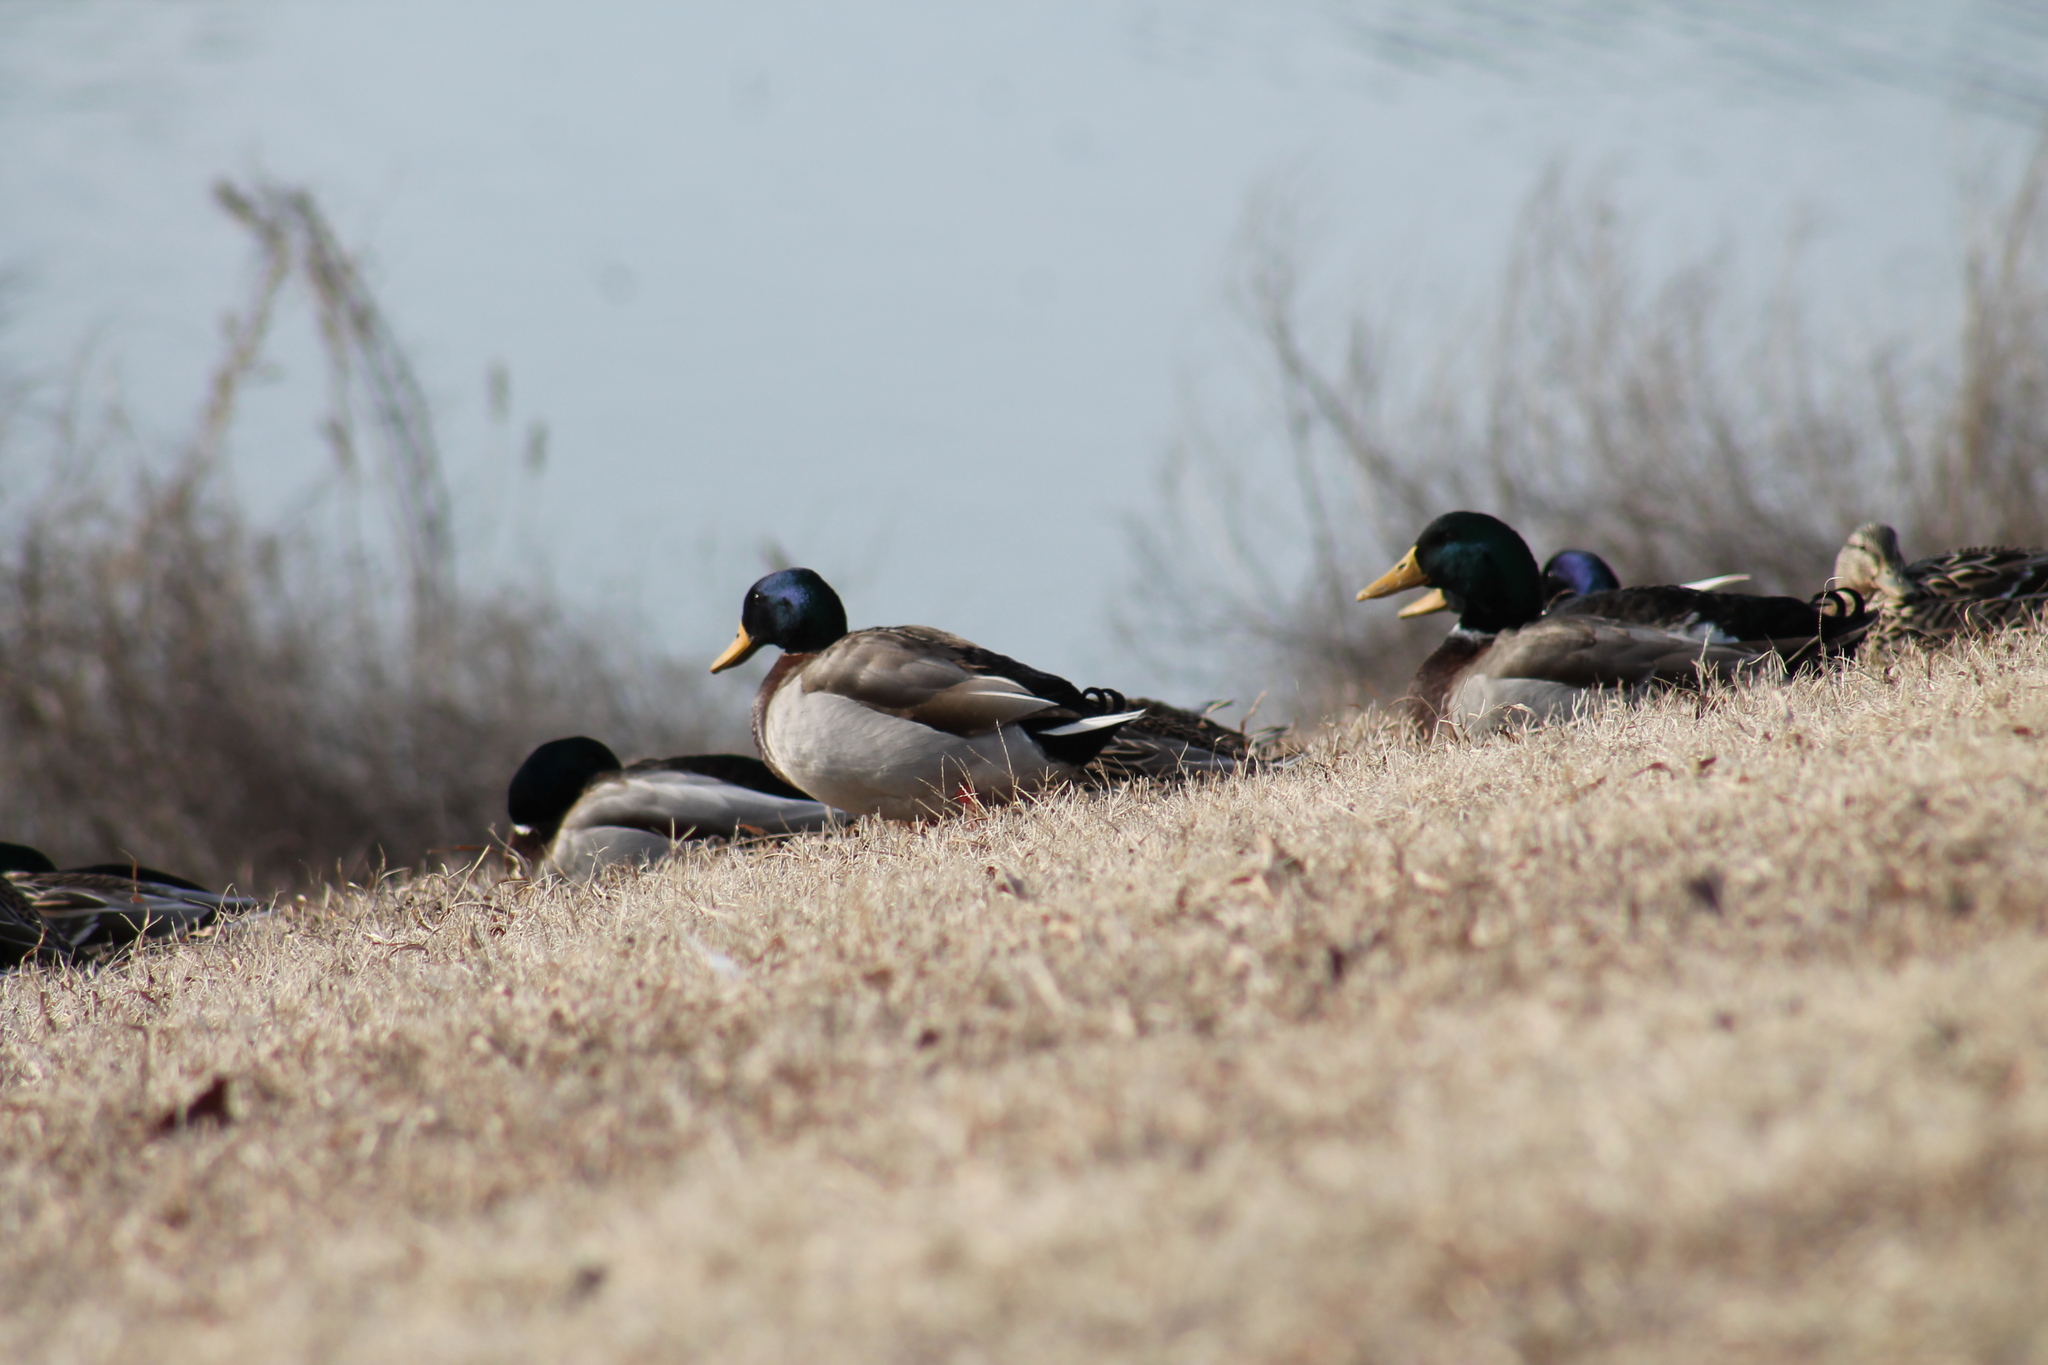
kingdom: Animalia
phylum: Chordata
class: Aves
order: Anseriformes
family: Anatidae
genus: Anas
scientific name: Anas platyrhynchos
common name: Mallard
